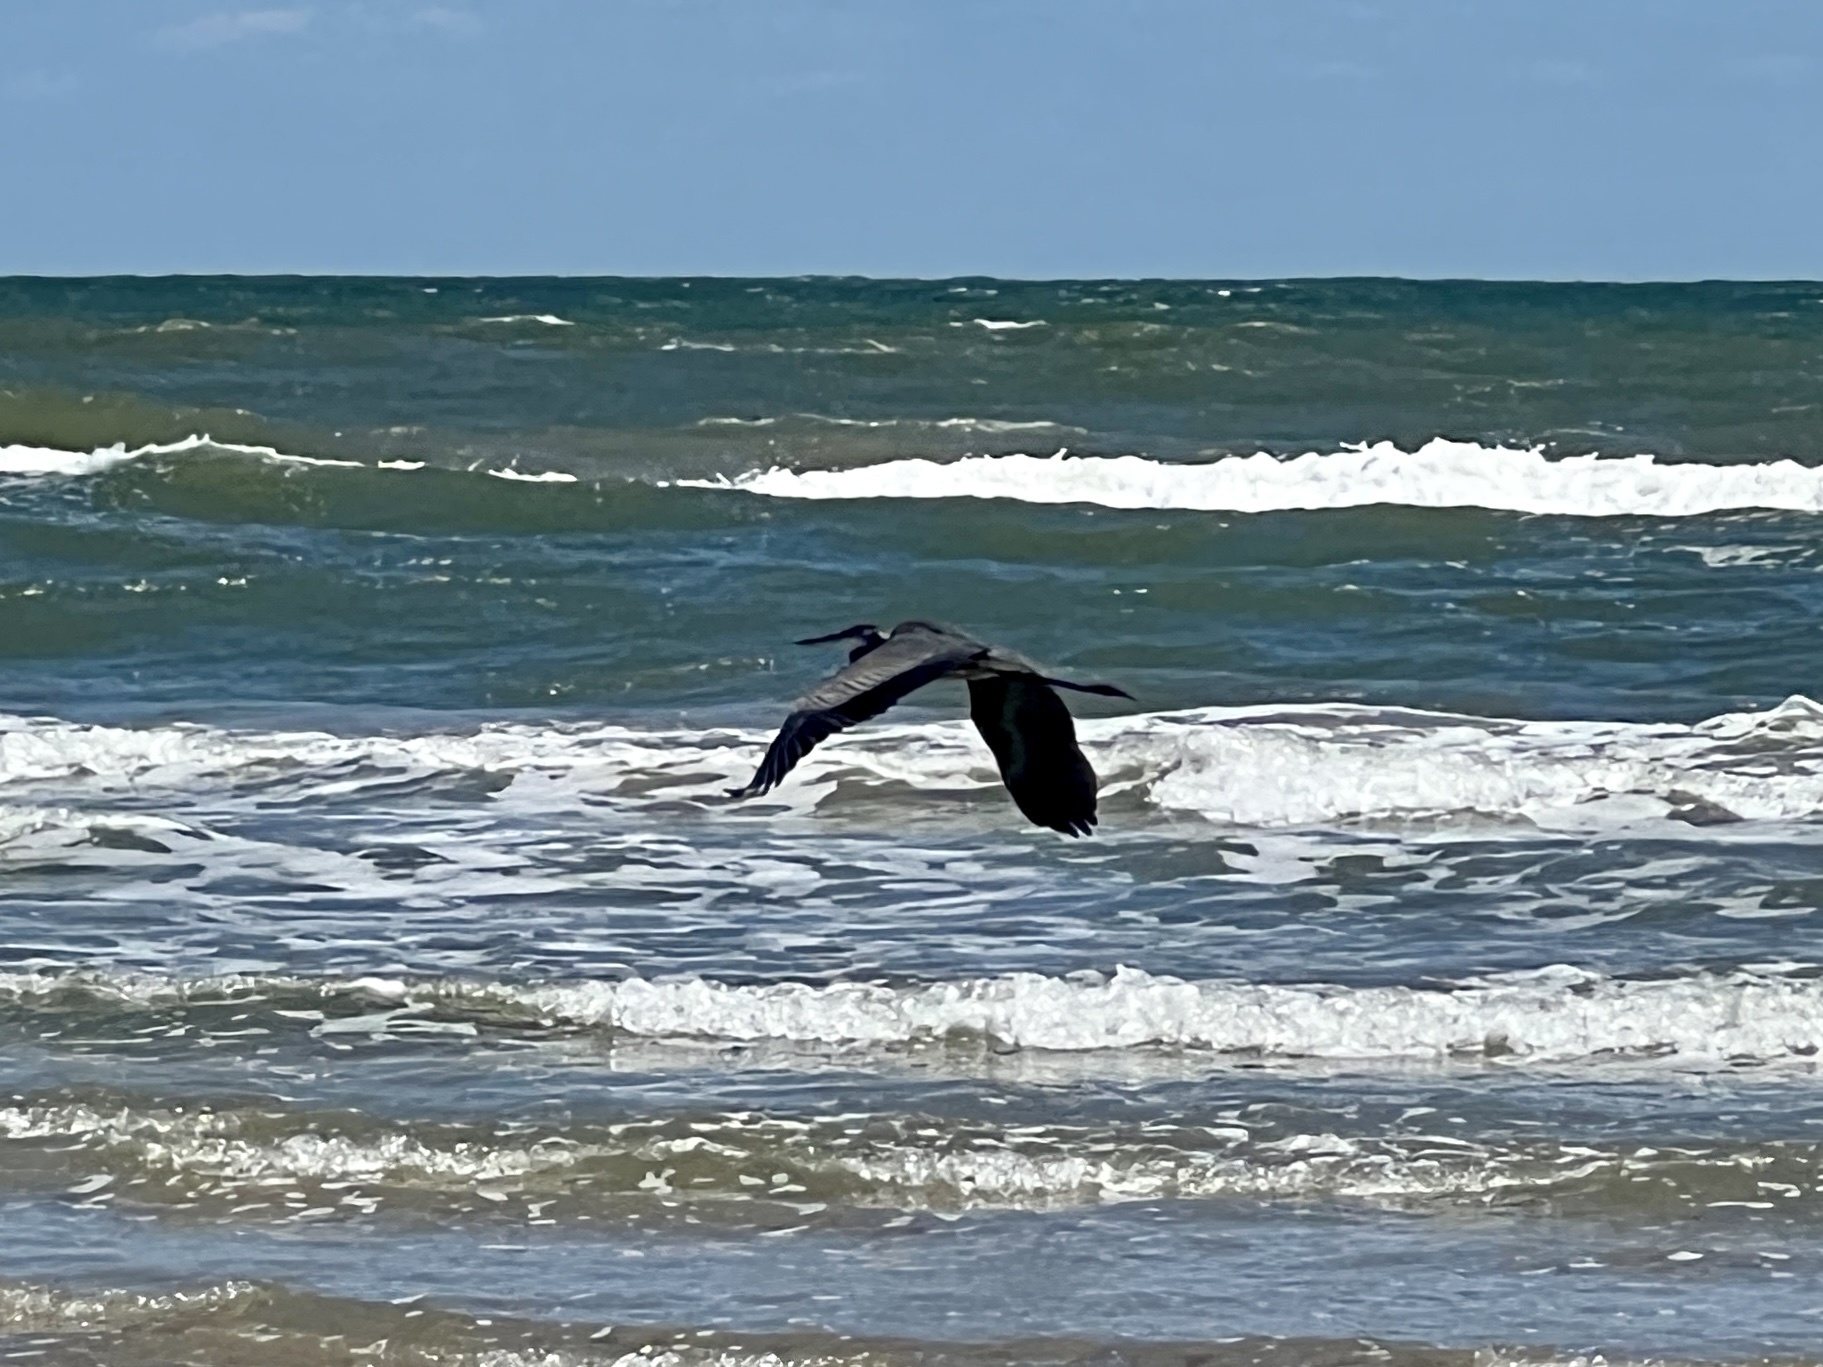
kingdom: Animalia
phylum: Chordata
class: Aves
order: Pelecaniformes
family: Ardeidae
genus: Ardea
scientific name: Ardea herodias
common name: Great blue heron
